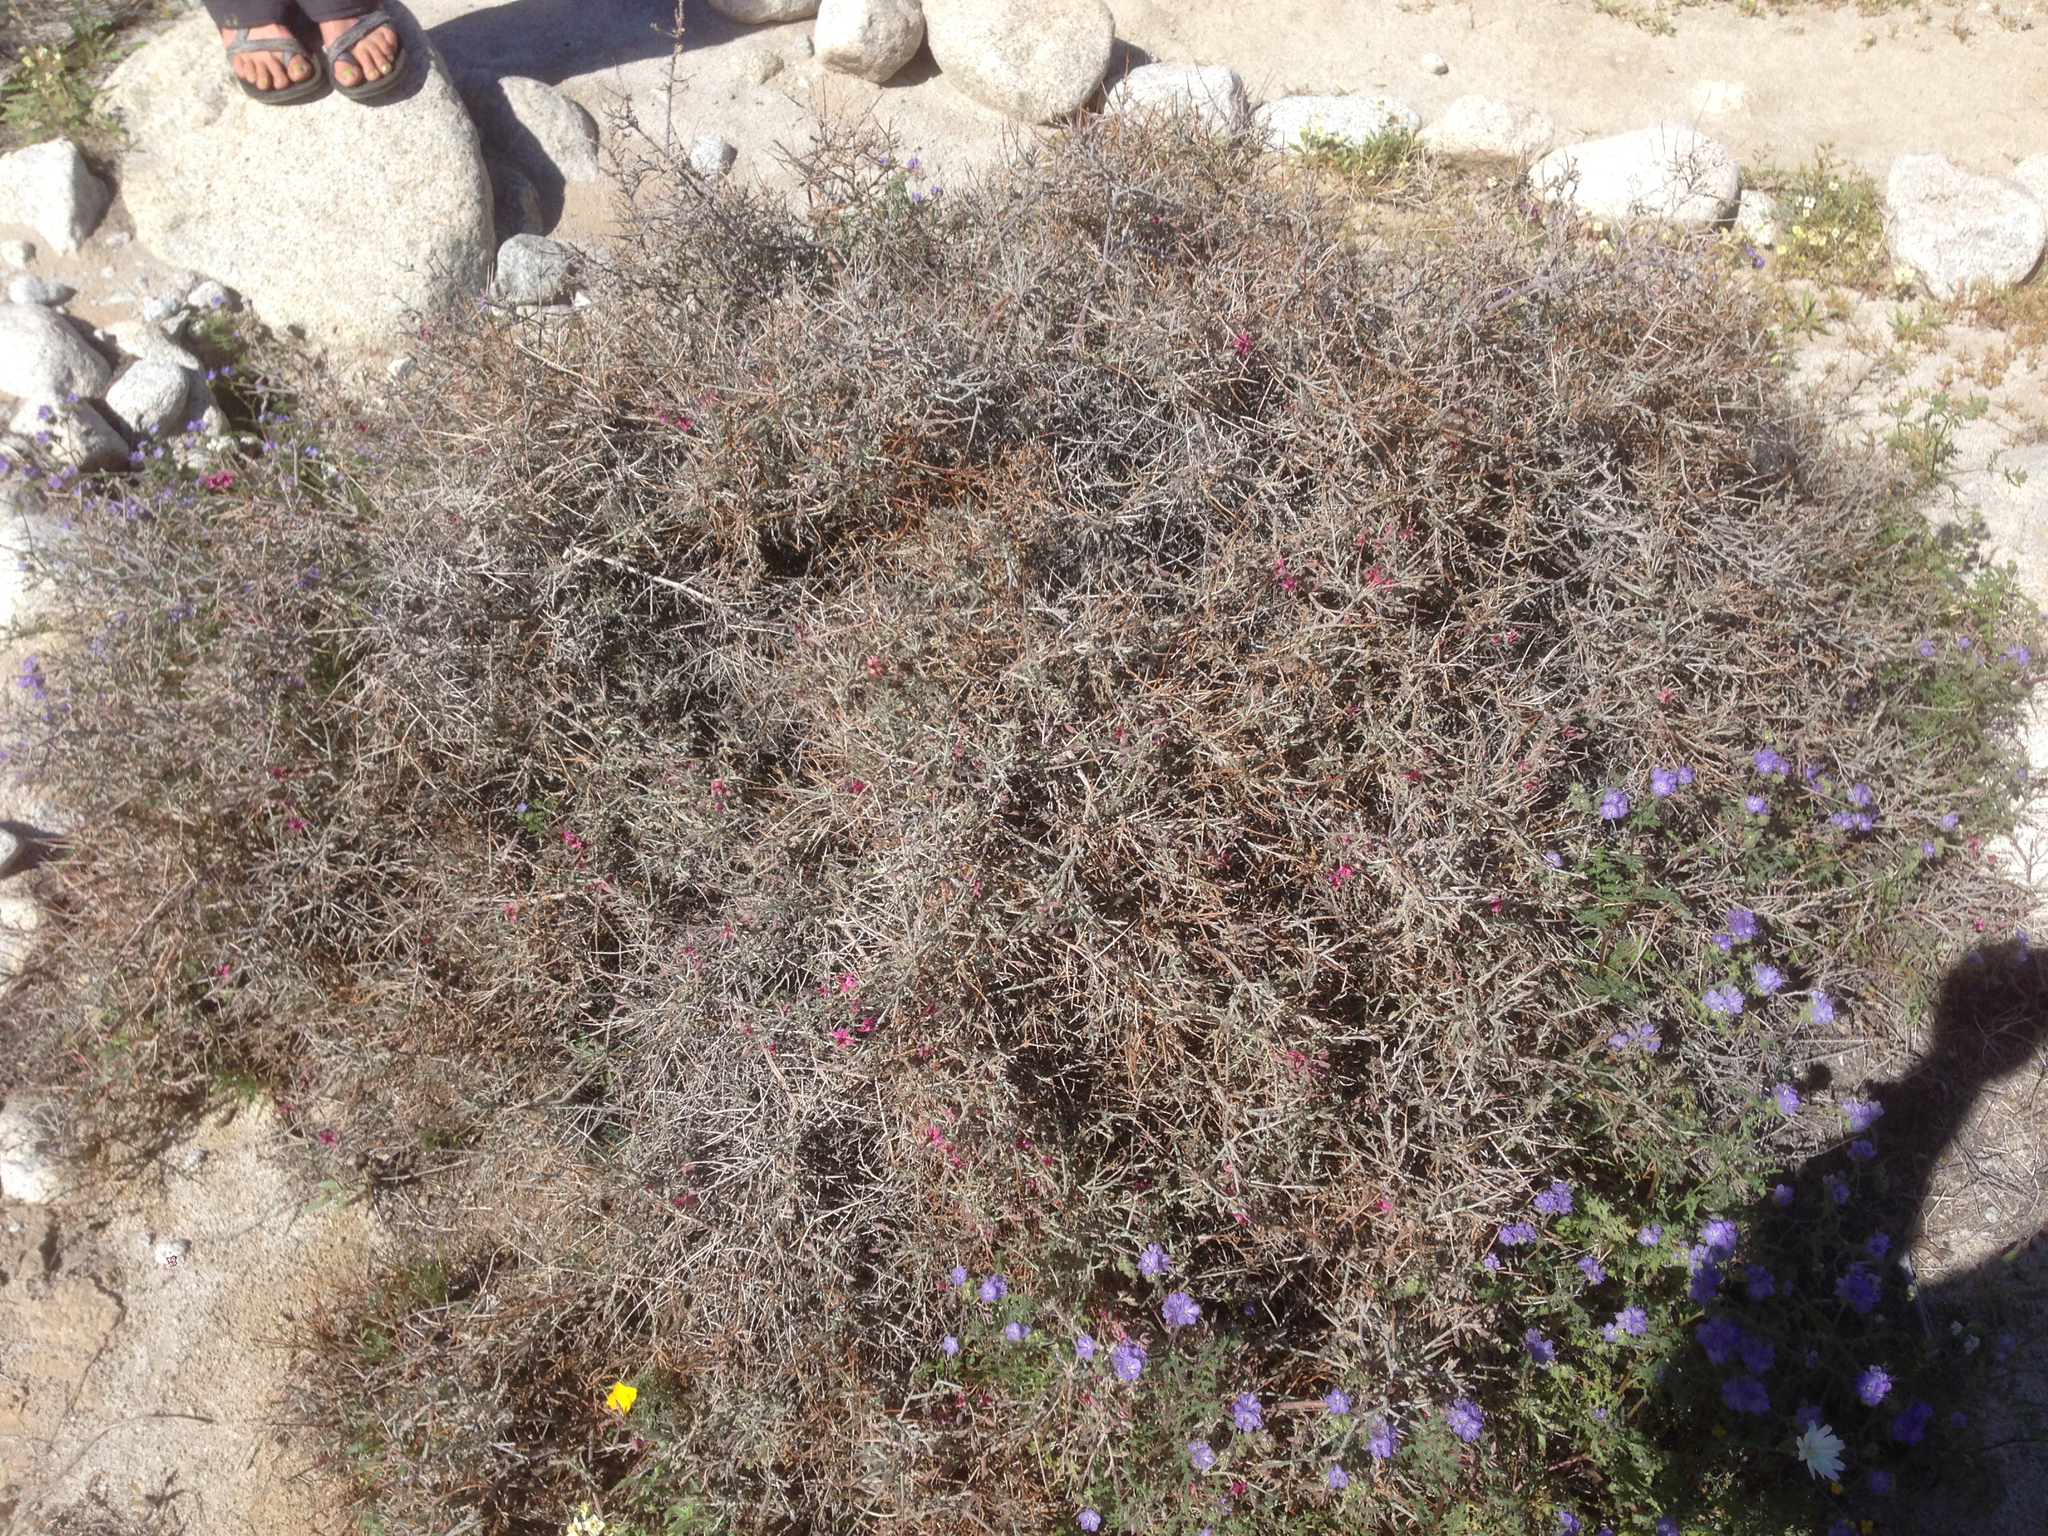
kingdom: Plantae
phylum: Tracheophyta
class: Magnoliopsida
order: Zygophyllales
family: Krameriaceae
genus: Krameria
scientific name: Krameria bicolor
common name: White ratany
